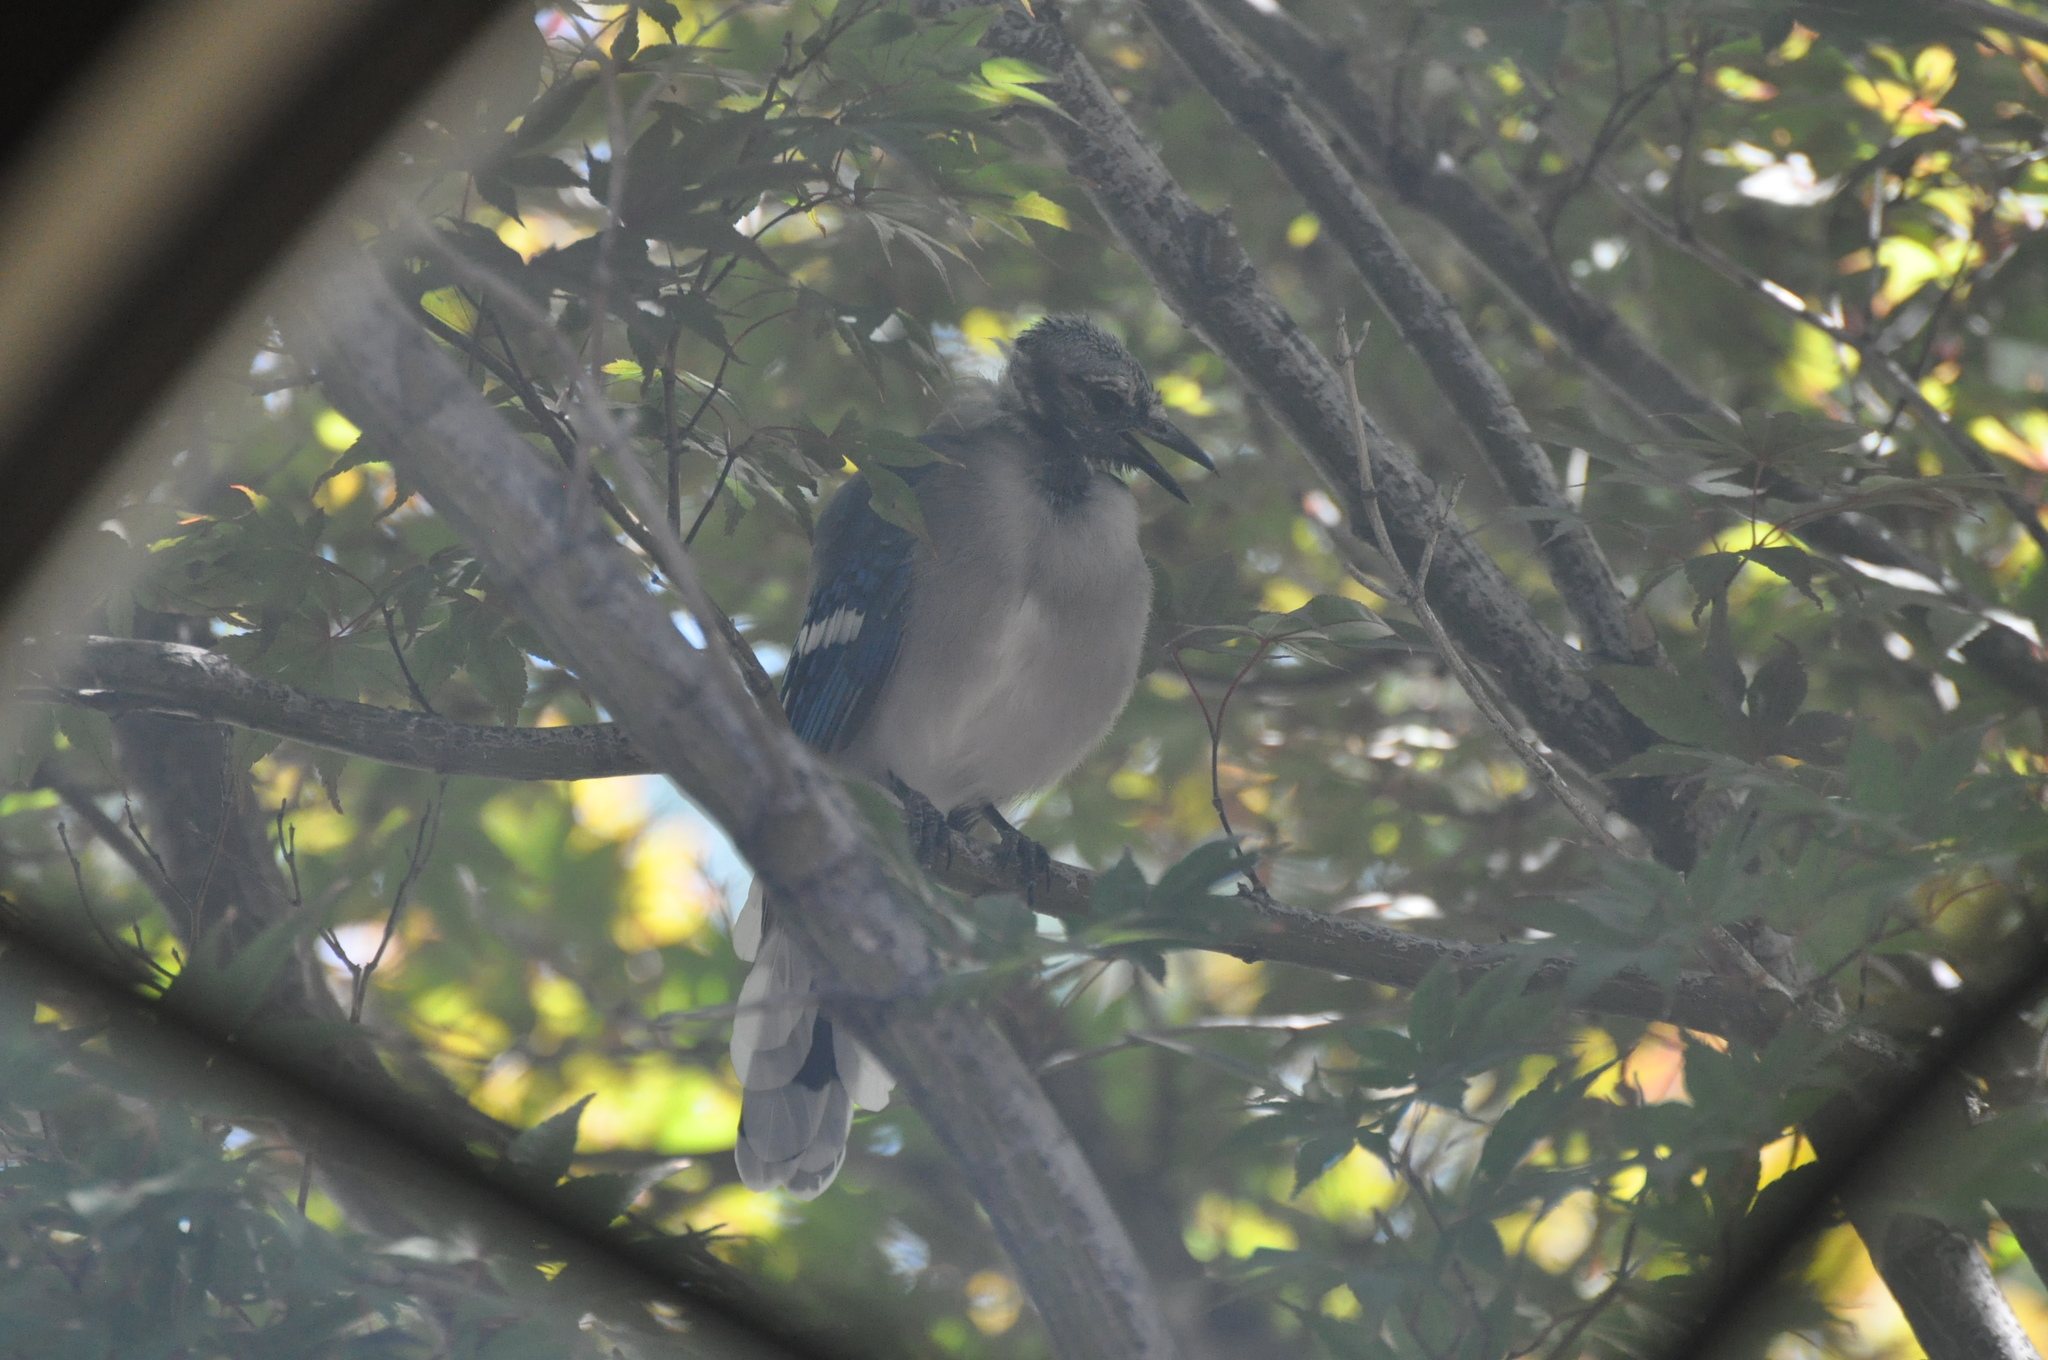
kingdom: Animalia
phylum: Chordata
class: Aves
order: Passeriformes
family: Corvidae
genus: Cyanocitta
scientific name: Cyanocitta cristata
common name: Blue jay
